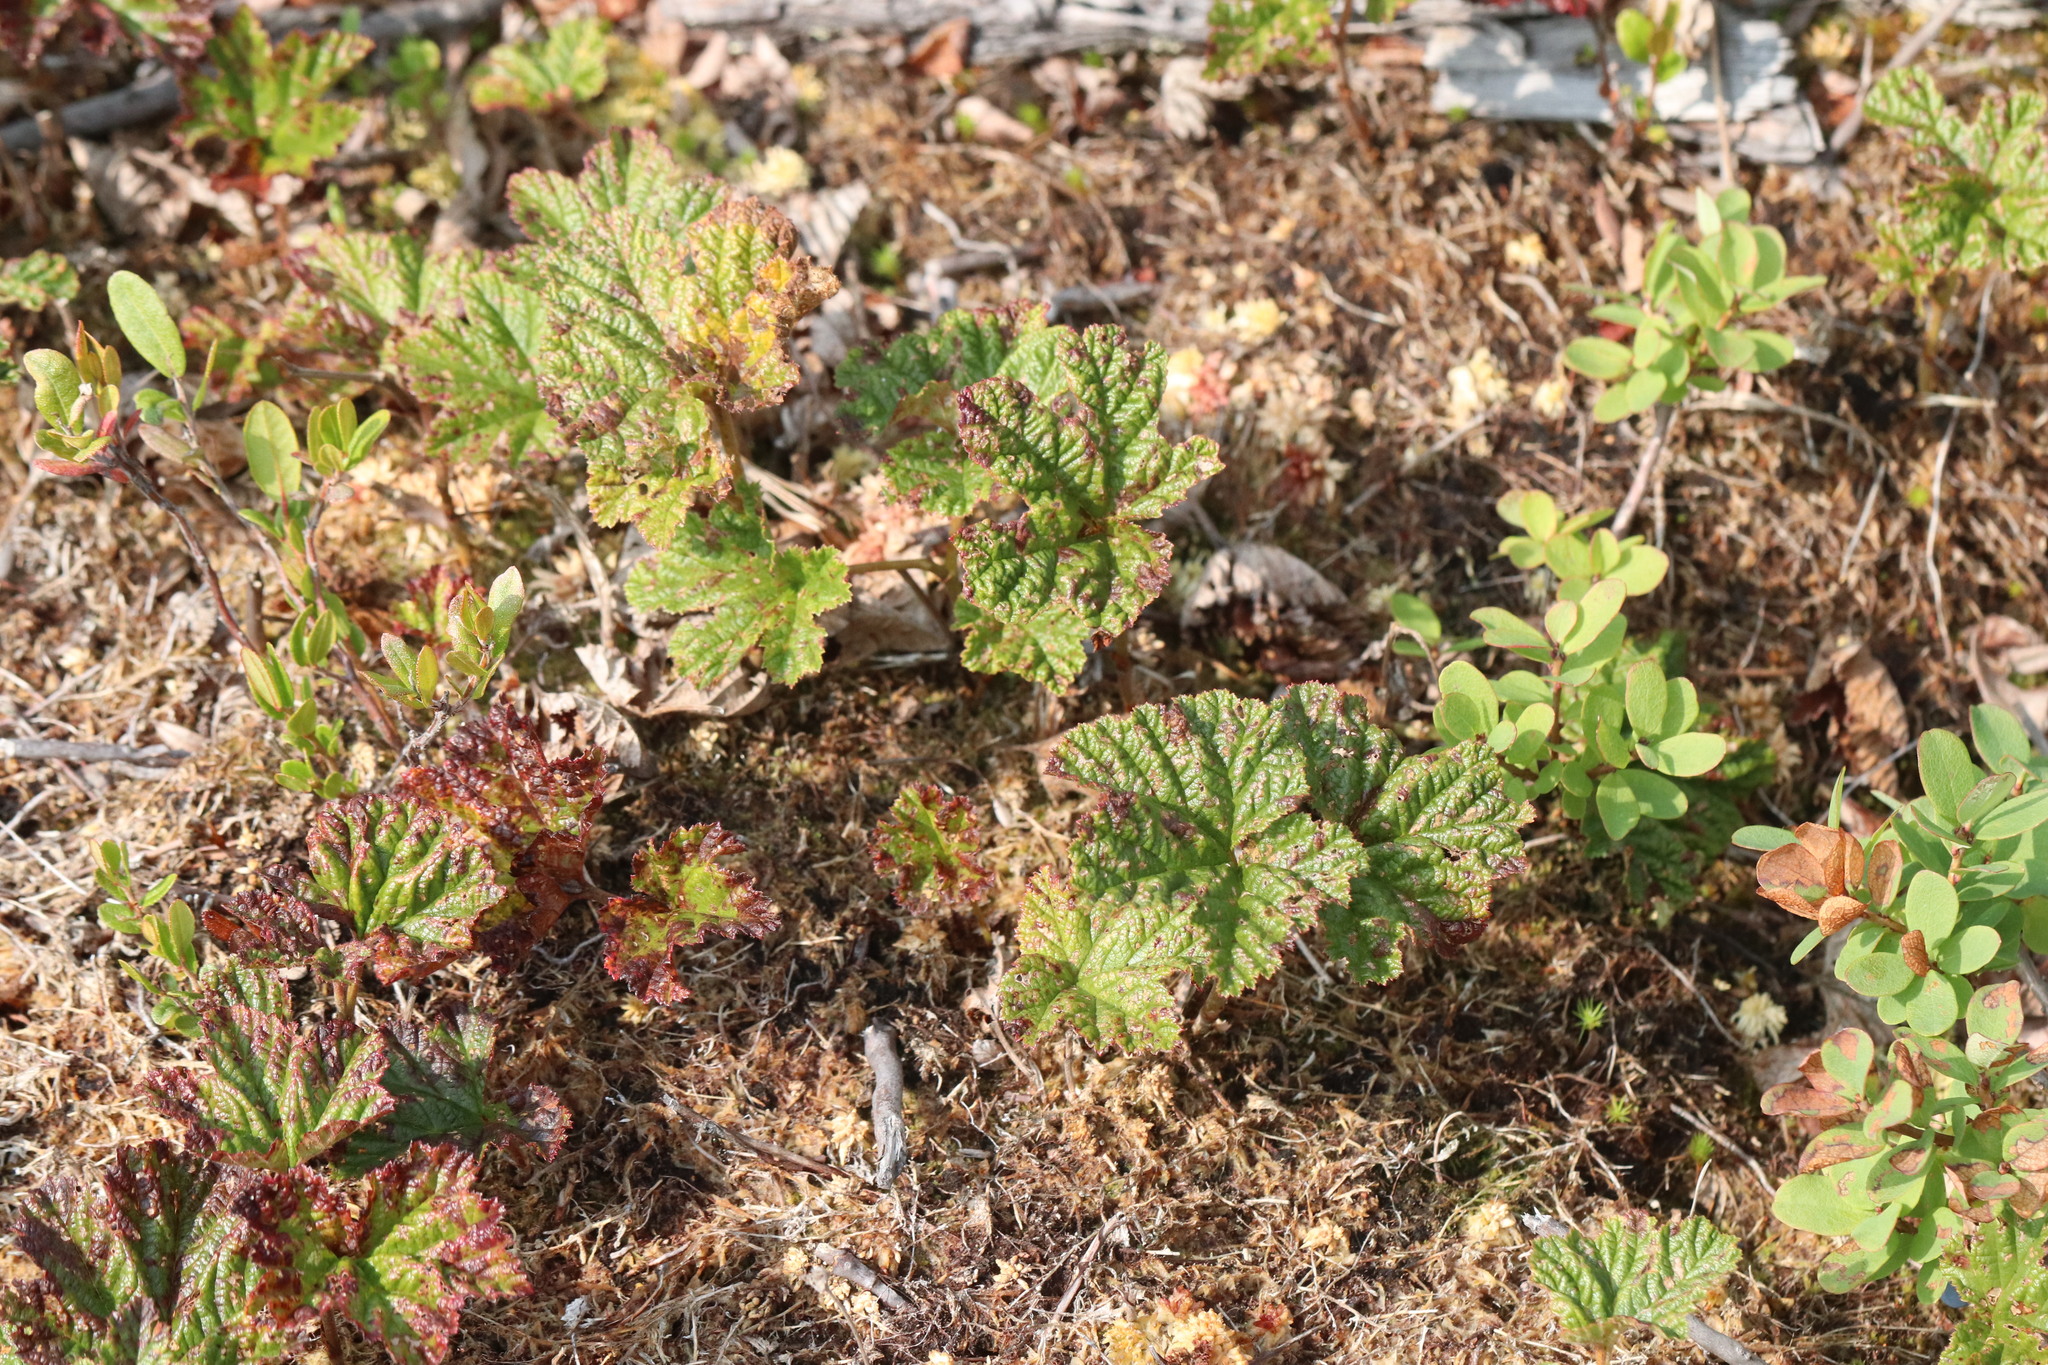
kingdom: Plantae
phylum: Tracheophyta
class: Magnoliopsida
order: Rosales
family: Rosaceae
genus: Rubus
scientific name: Rubus chamaemorus
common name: Cloudberry
